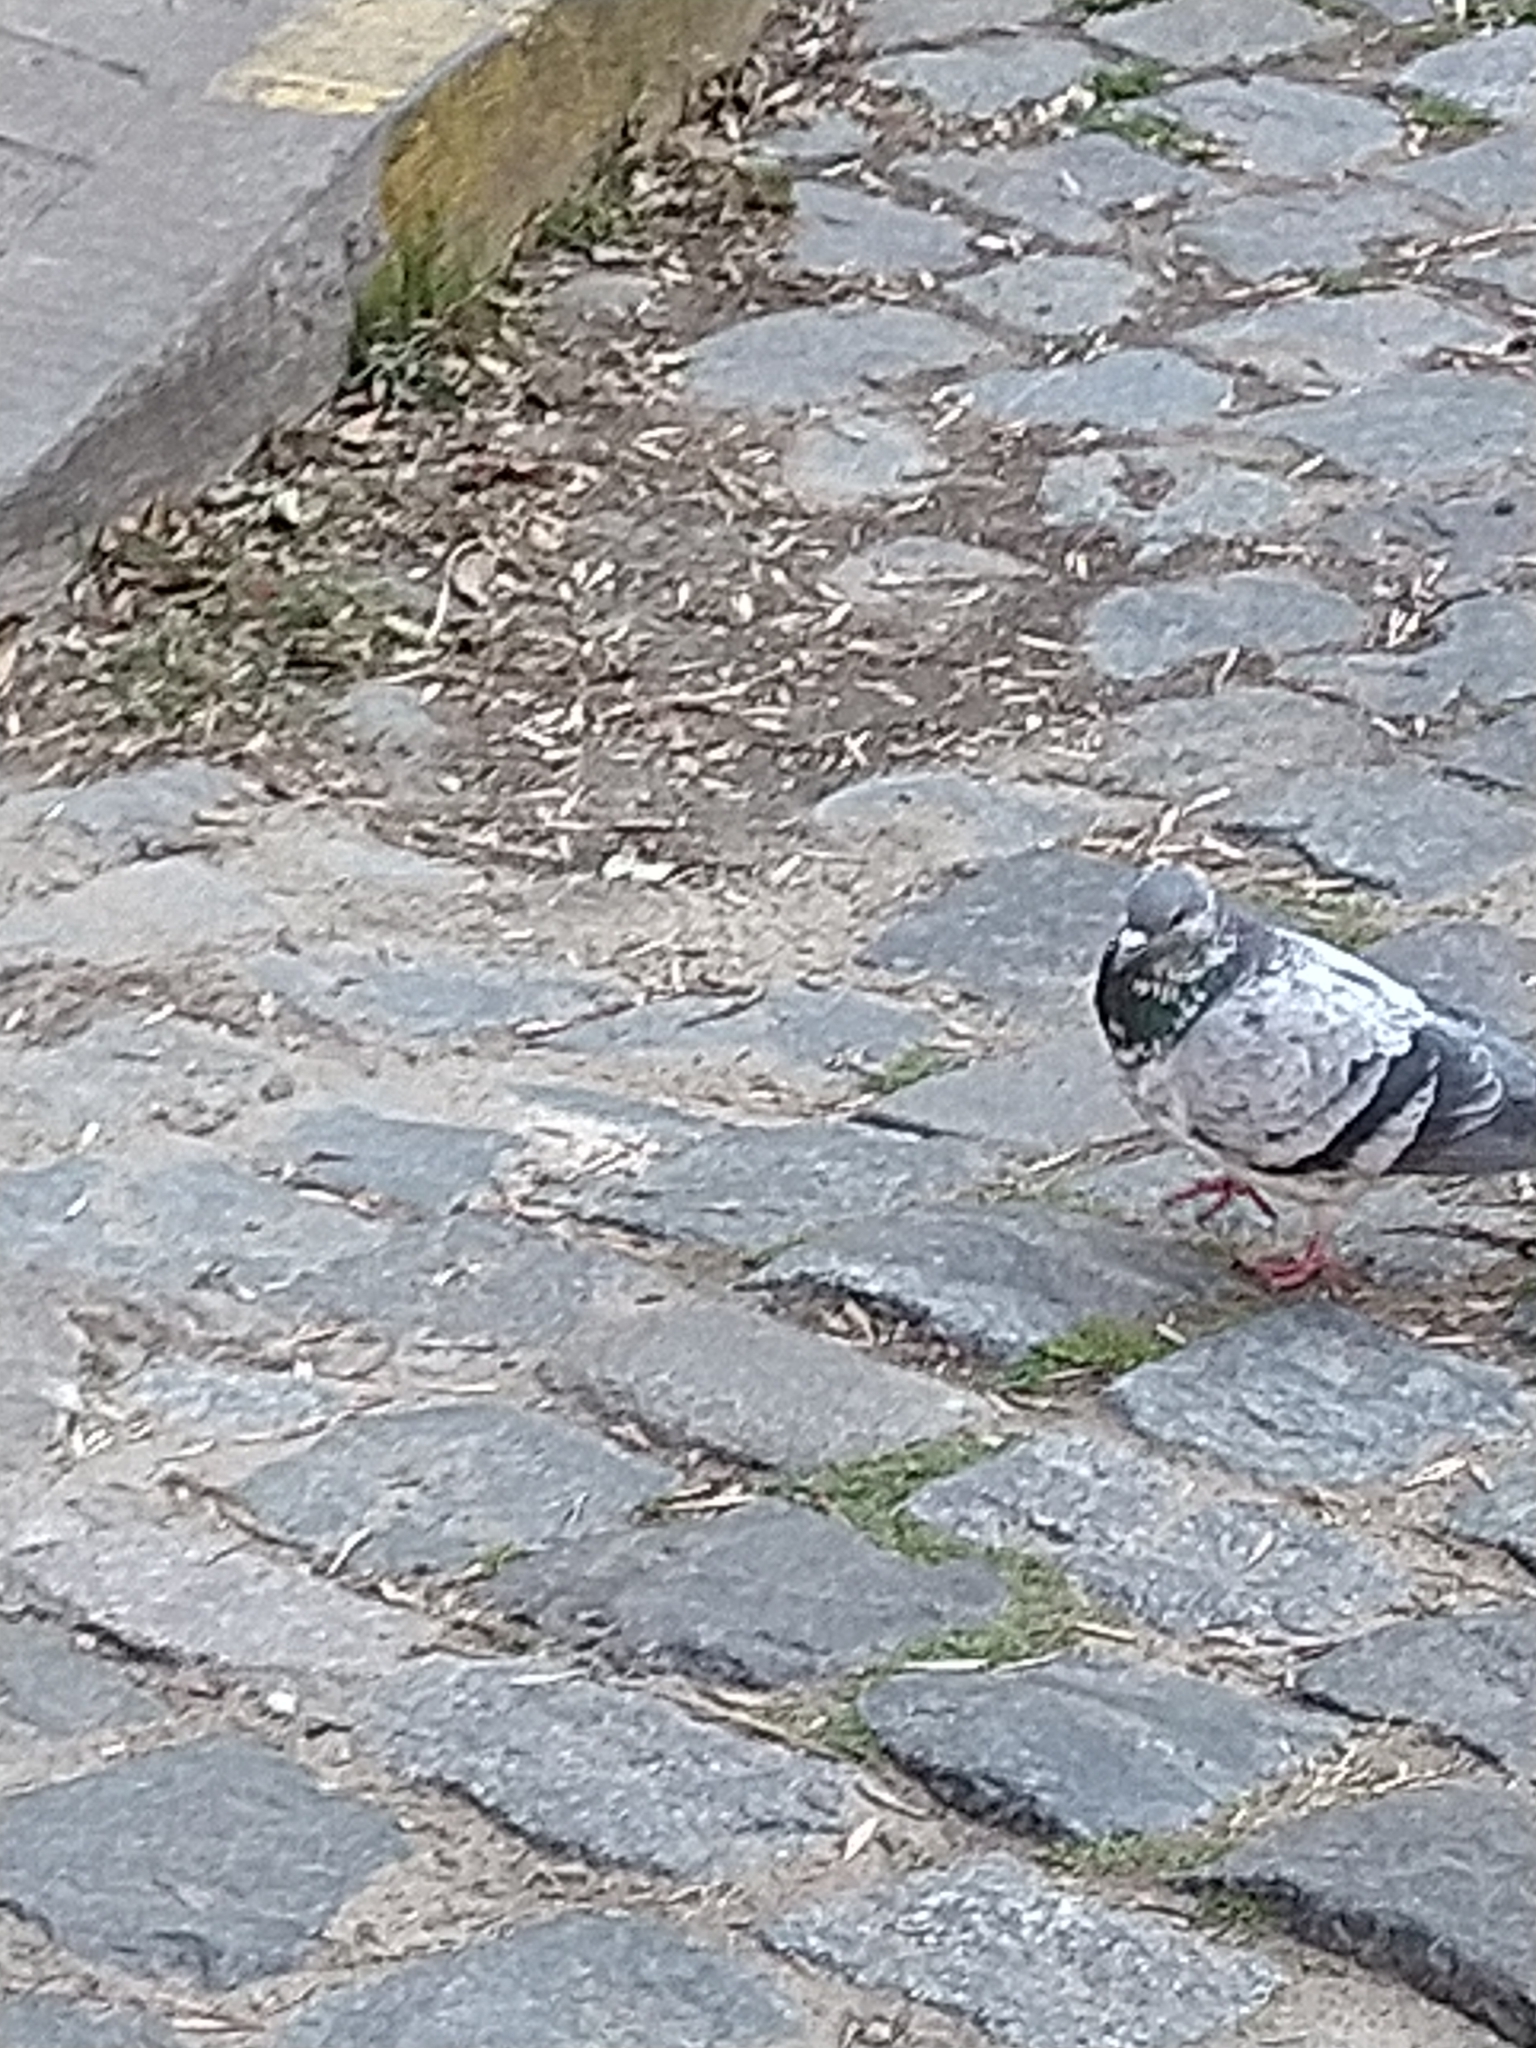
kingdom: Animalia
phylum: Chordata
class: Aves
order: Columbiformes
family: Columbidae
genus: Columba
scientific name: Columba livia
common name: Rock pigeon
